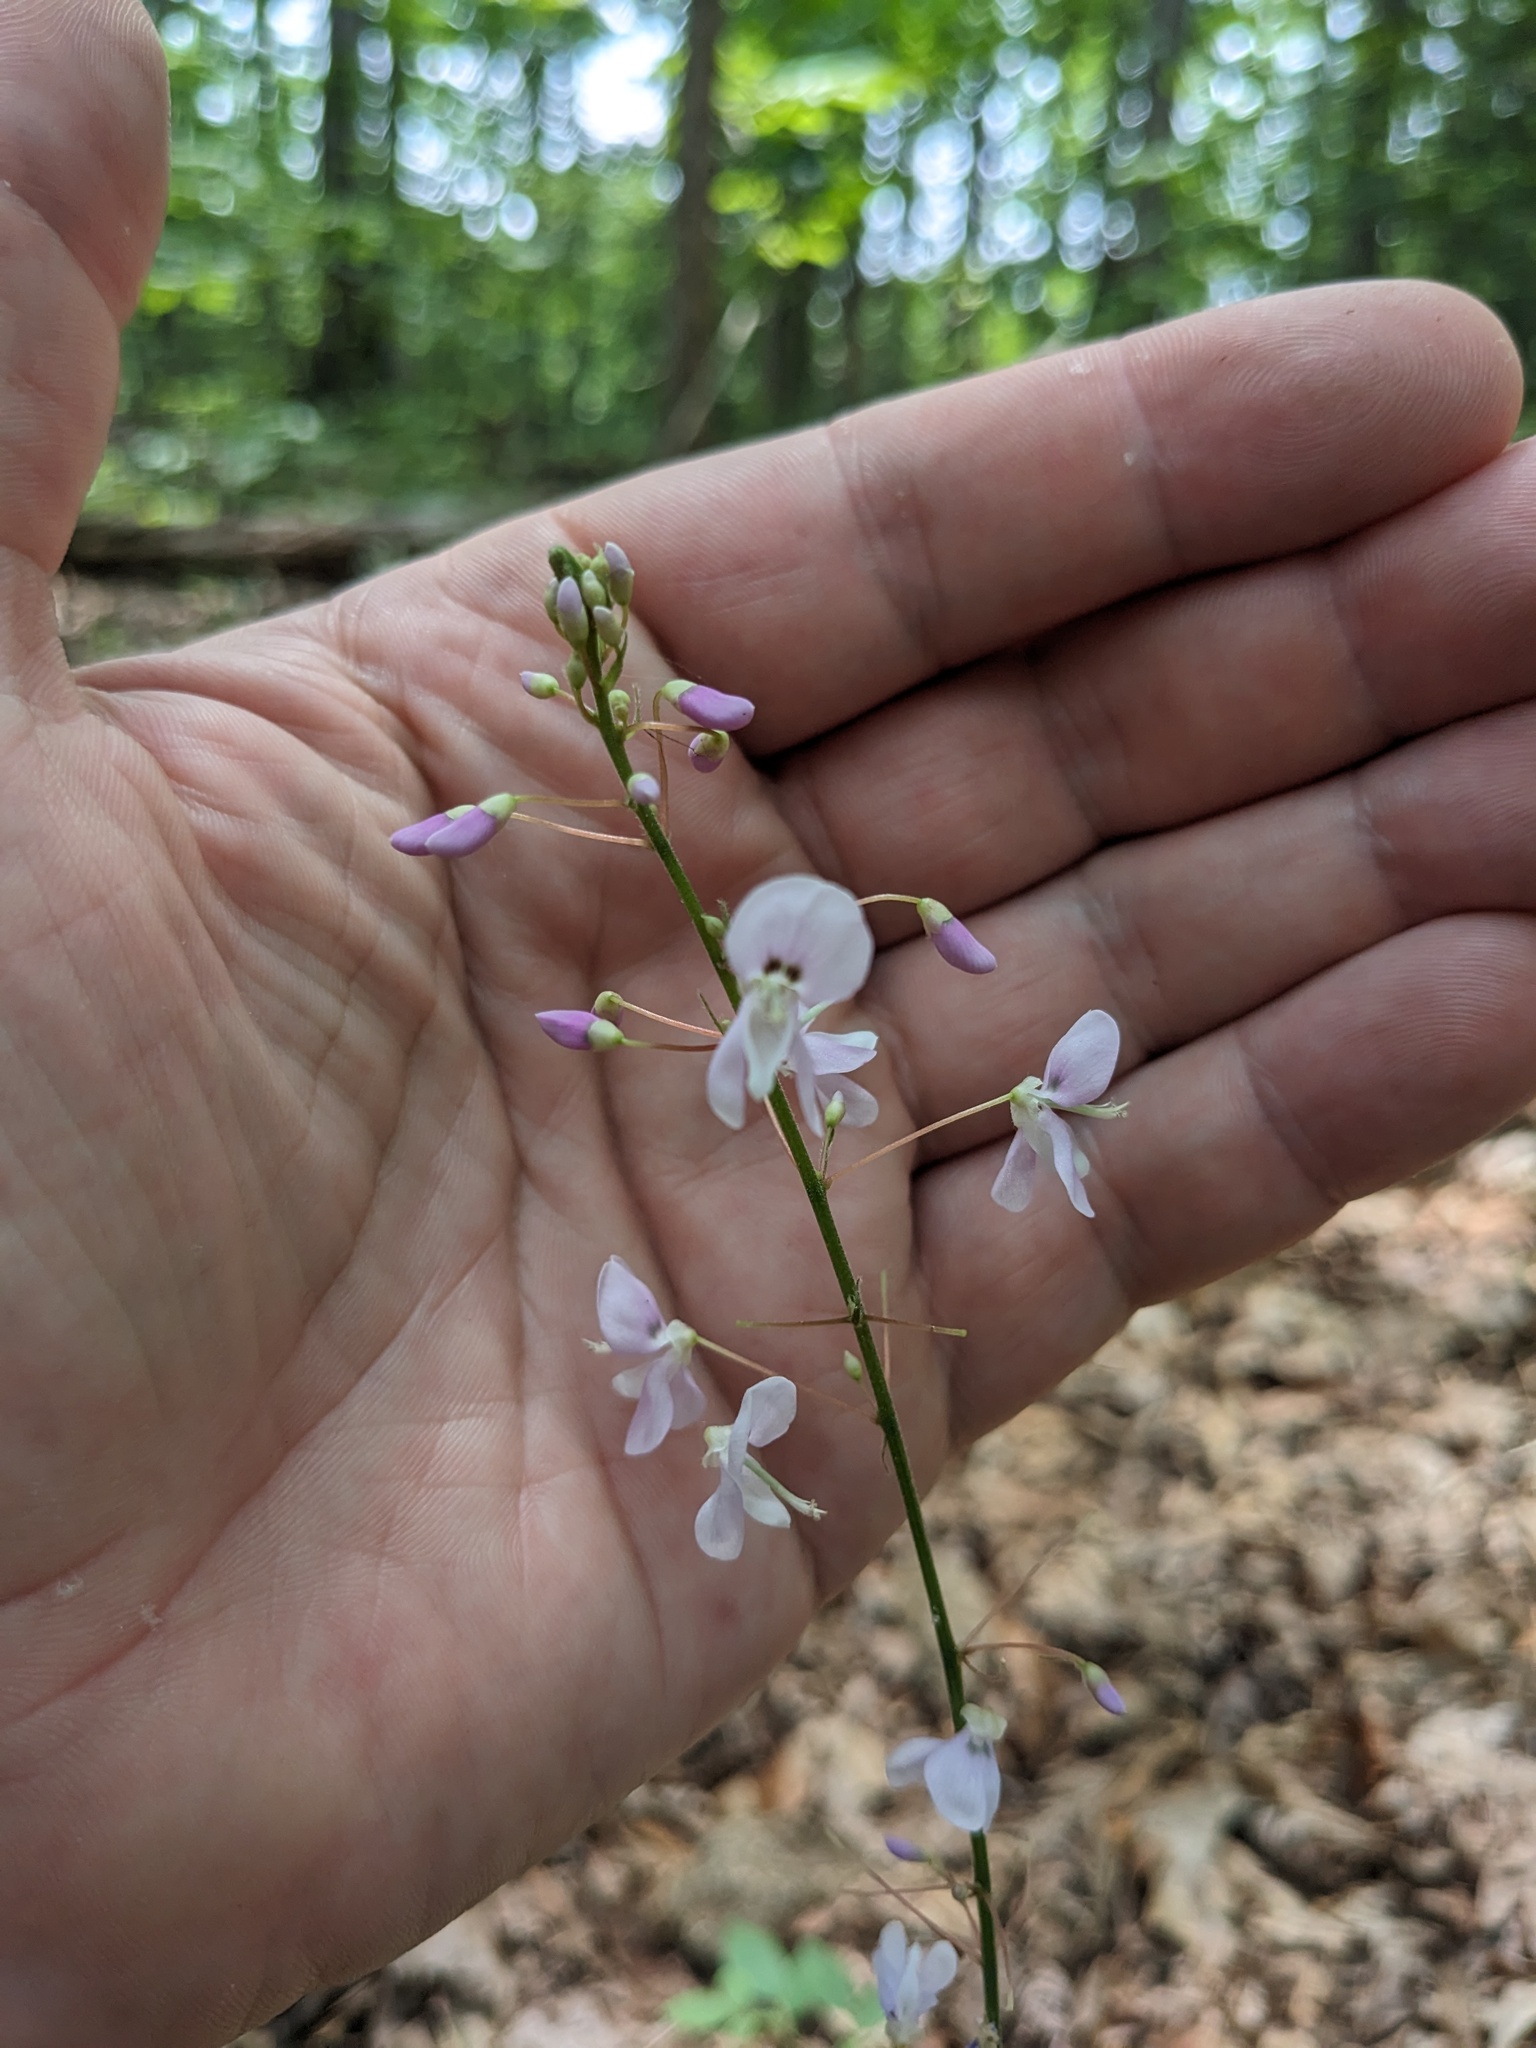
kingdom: Plantae
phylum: Tracheophyta
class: Magnoliopsida
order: Fabales
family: Fabaceae
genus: Hylodesmum
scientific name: Hylodesmum nudiflorum
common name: Bare-stemmed tick-trefoil
